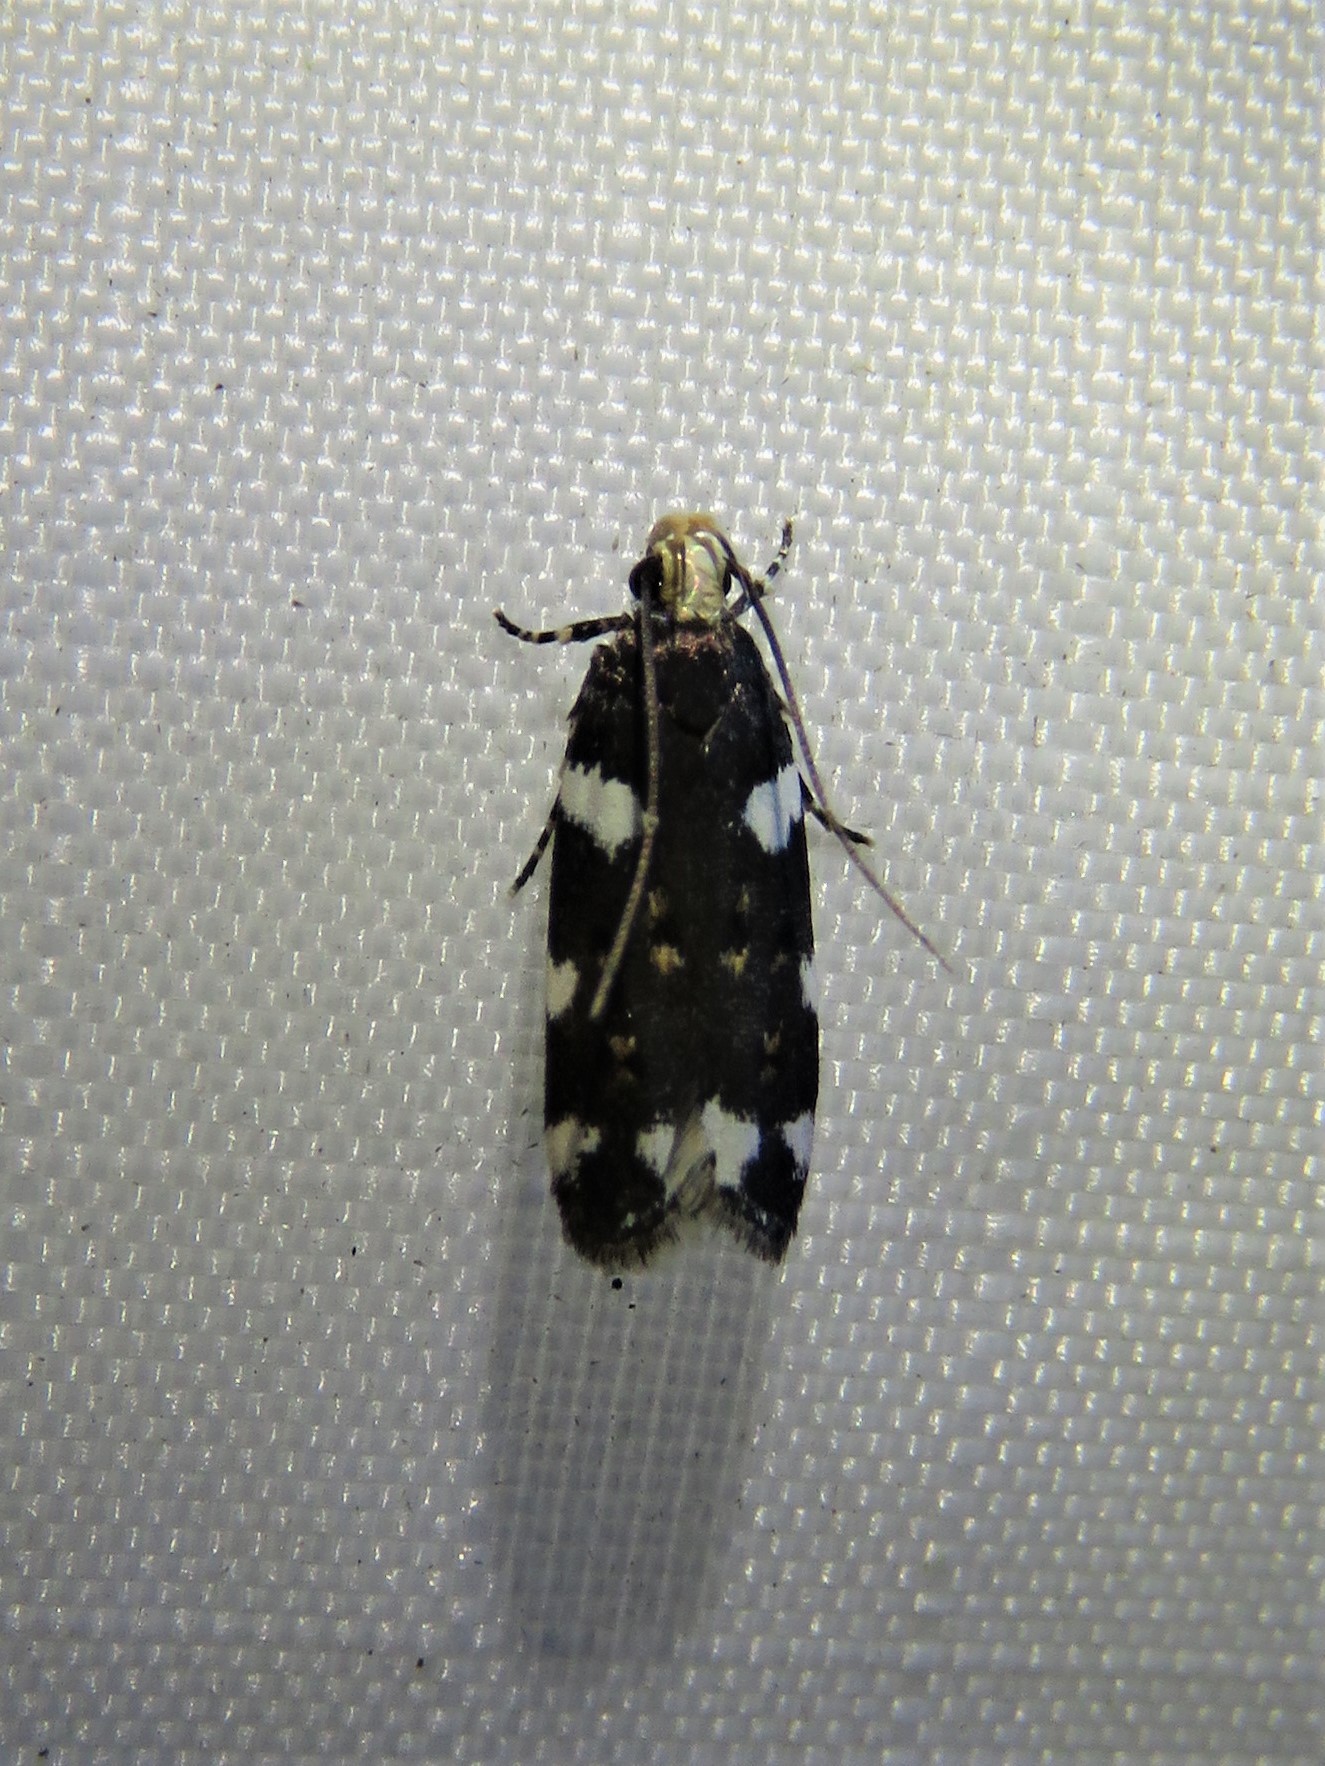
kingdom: Animalia
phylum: Arthropoda
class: Insecta
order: Lepidoptera
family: Gelechiidae
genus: Fascista
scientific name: Fascista cercerisella
